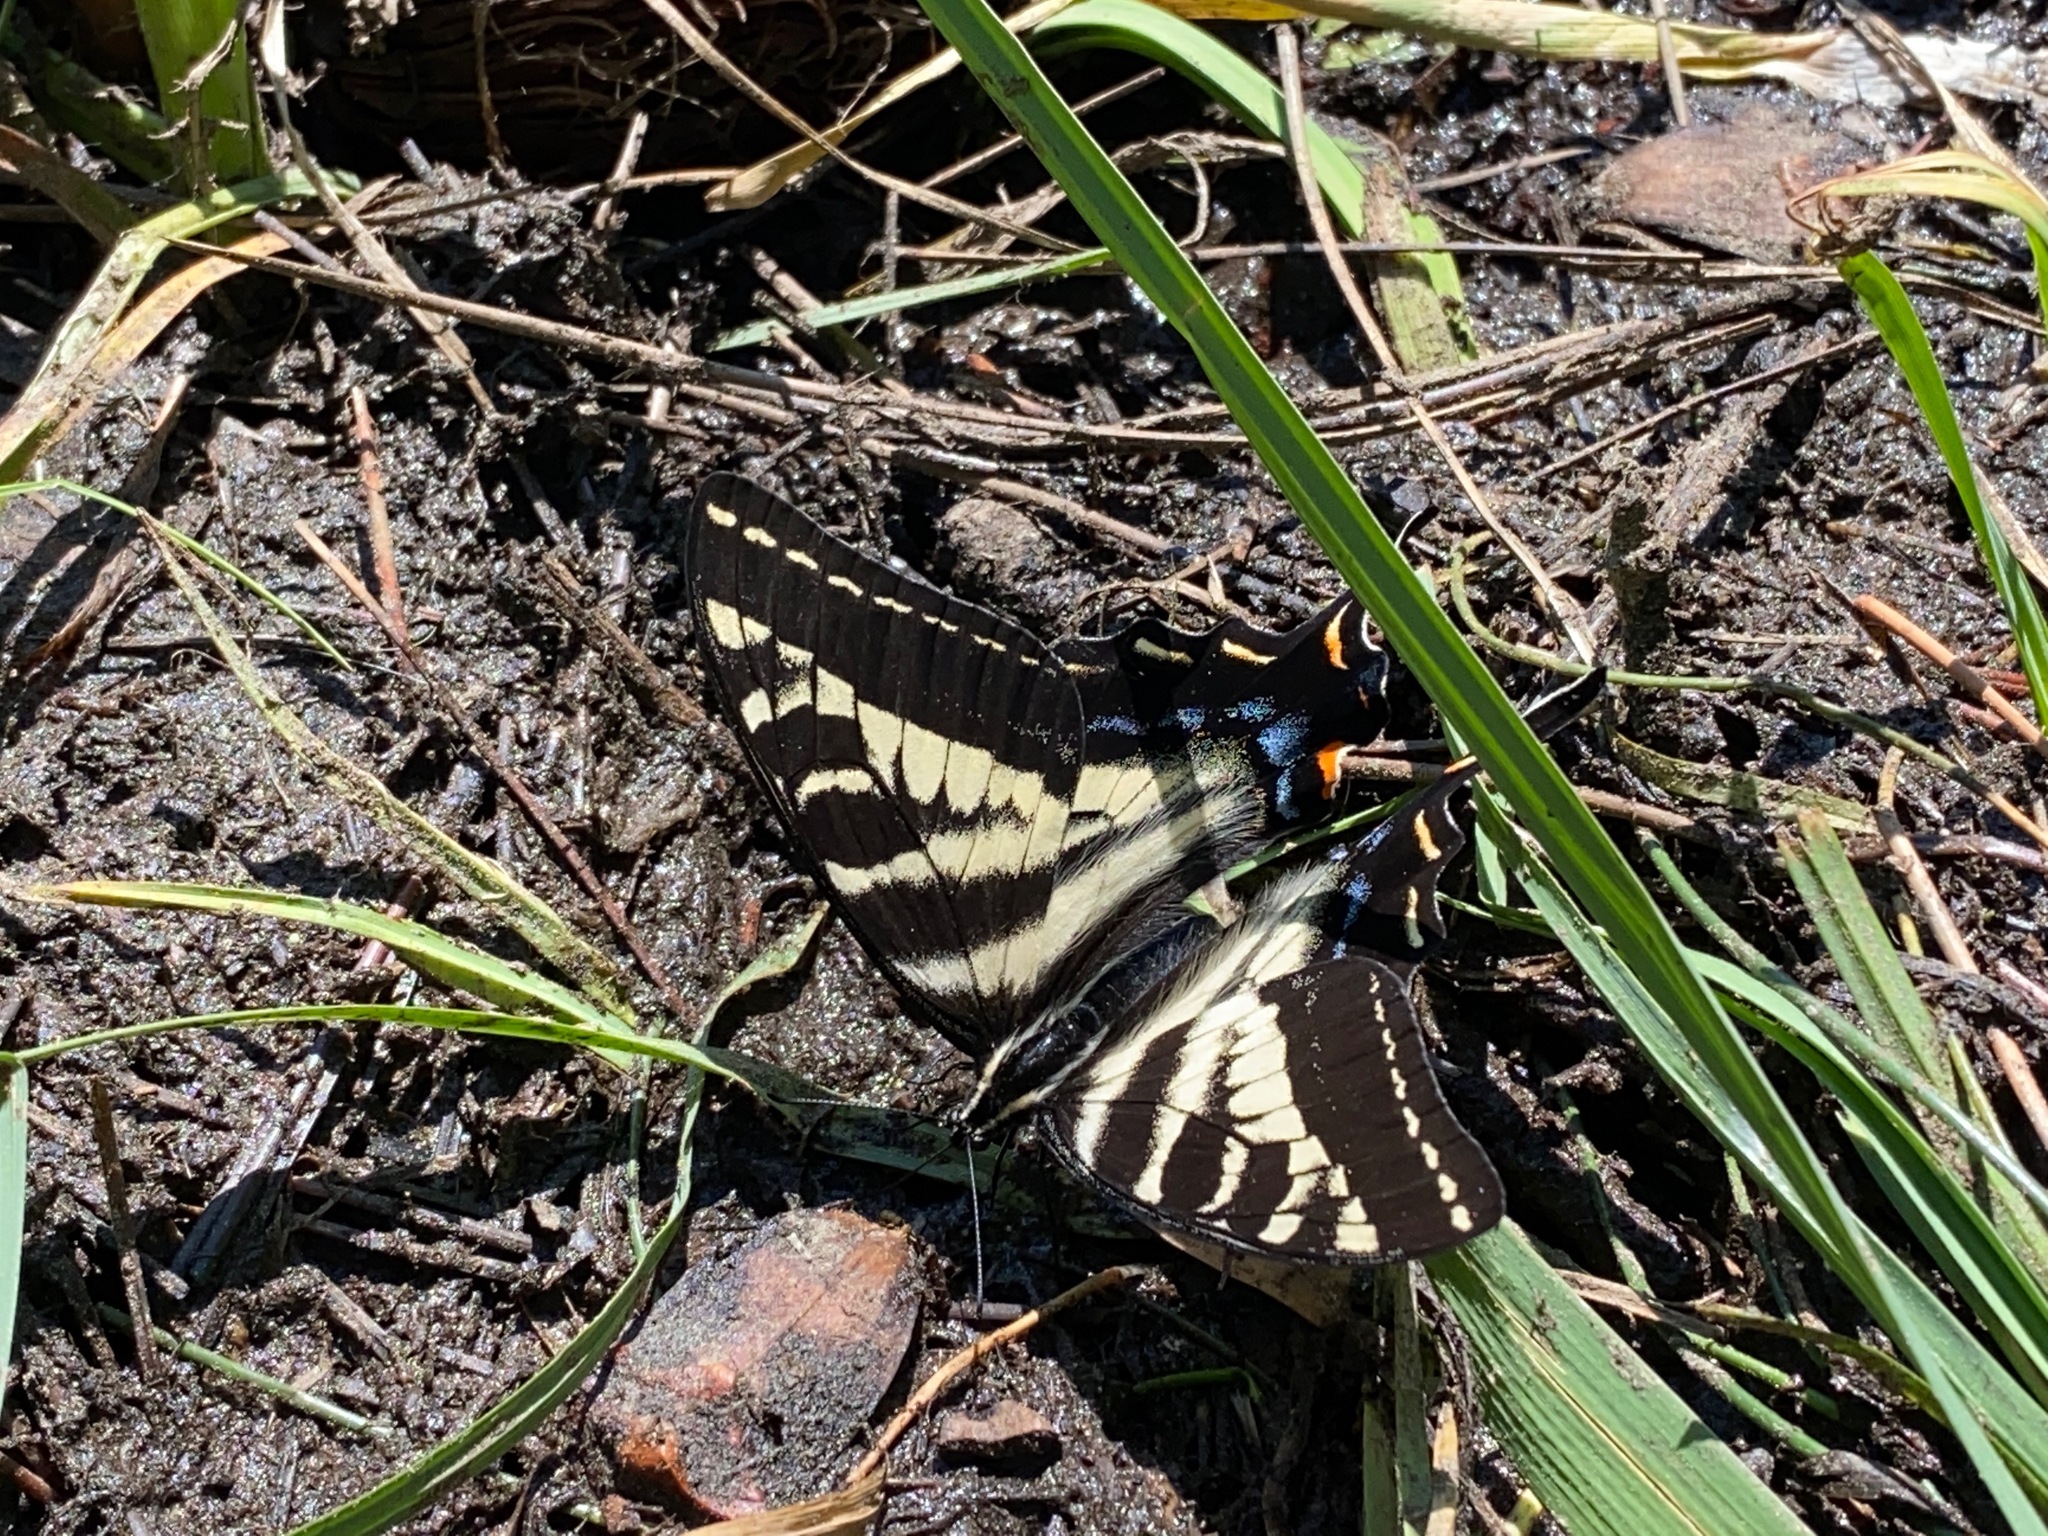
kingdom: Animalia
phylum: Arthropoda
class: Insecta
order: Lepidoptera
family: Papilionidae
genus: Papilio
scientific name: Papilio eurymedon
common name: Pale tiger swallowtail
